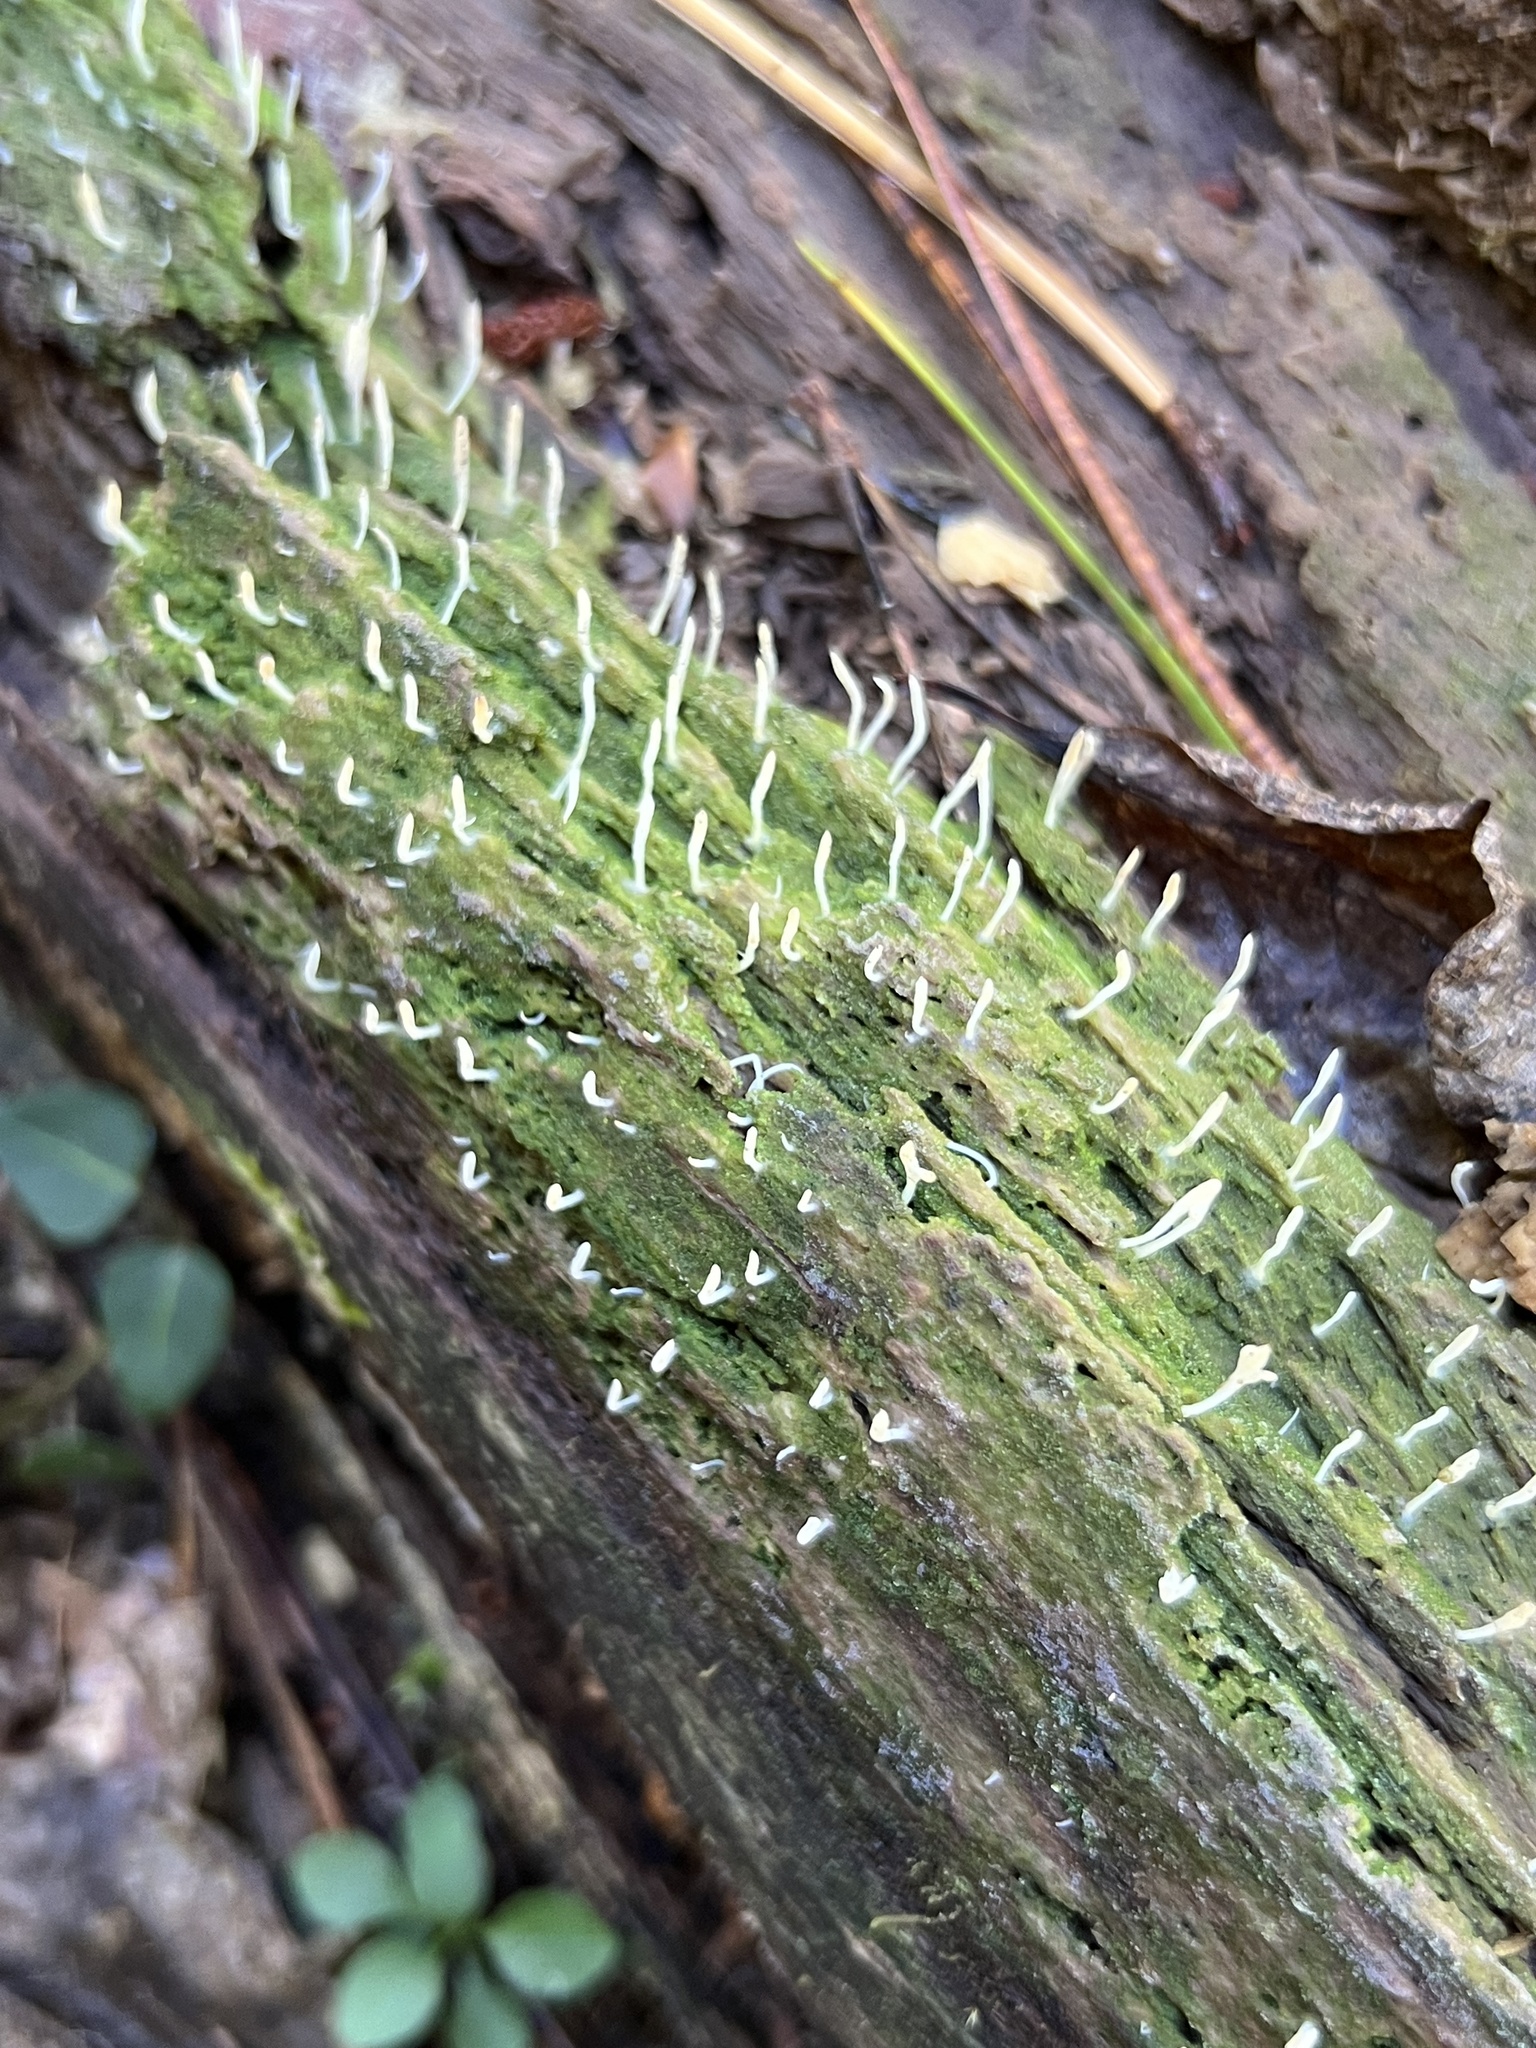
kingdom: Fungi
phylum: Basidiomycota
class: Agaricomycetes
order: Cantharellales
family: Hydnaceae
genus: Multiclavula
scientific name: Multiclavula mucida
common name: White green-algae coral
